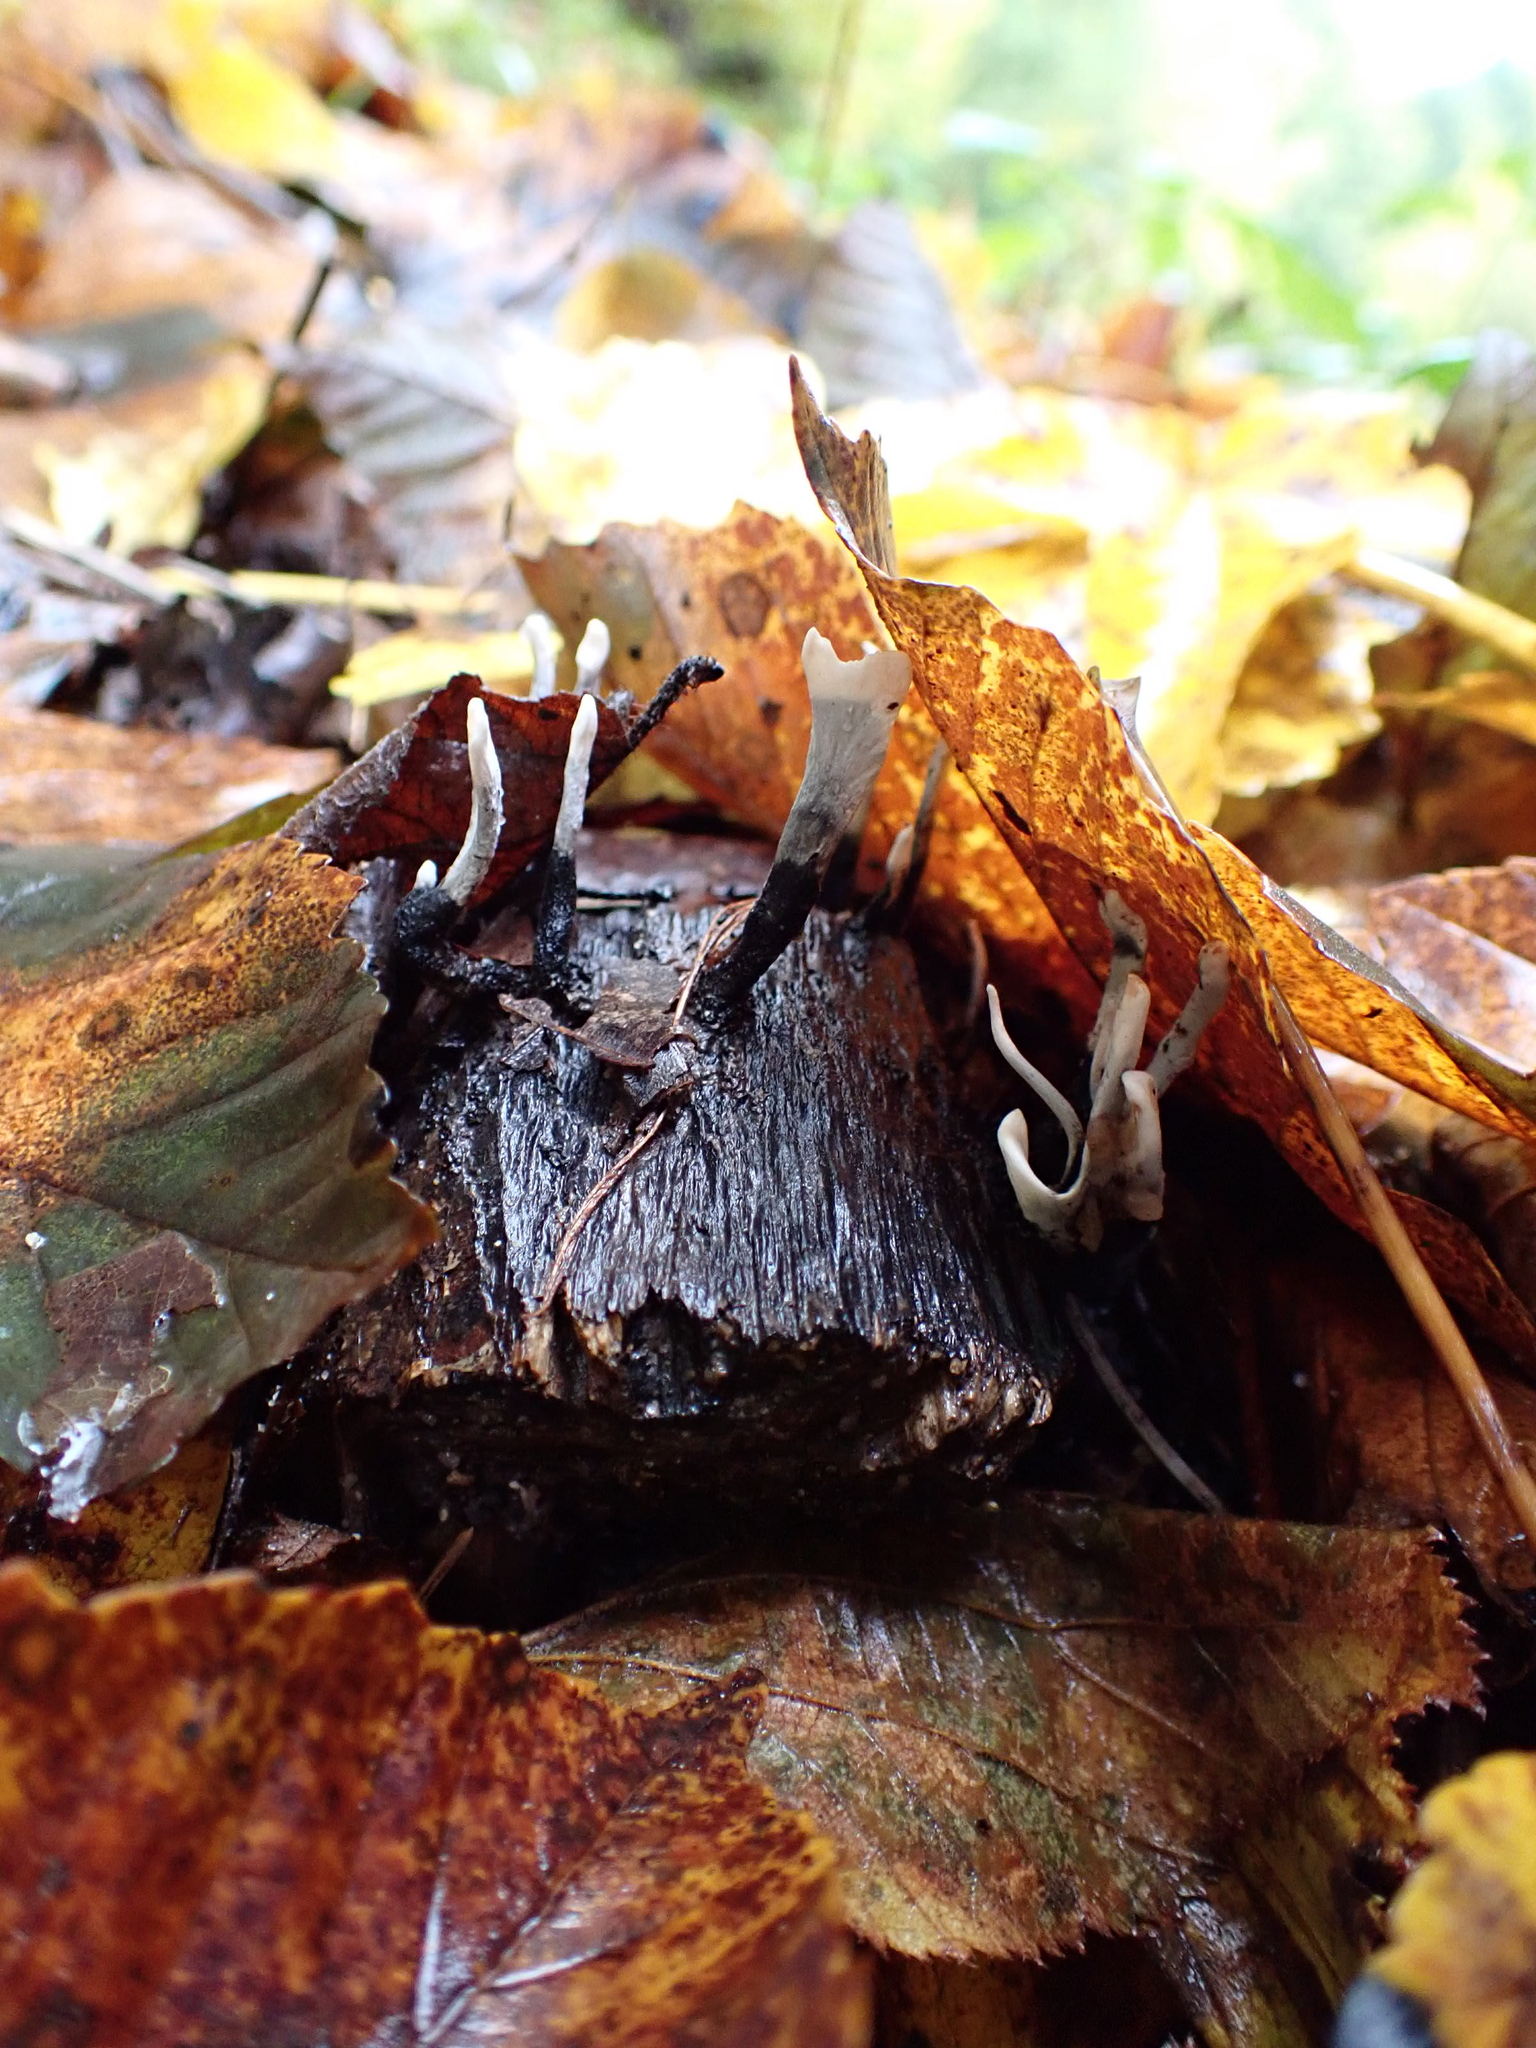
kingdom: Fungi
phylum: Ascomycota
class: Sordariomycetes
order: Xylariales
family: Xylariaceae
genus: Xylaria
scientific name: Xylaria hypoxylon
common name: Candle-snuff fungus
